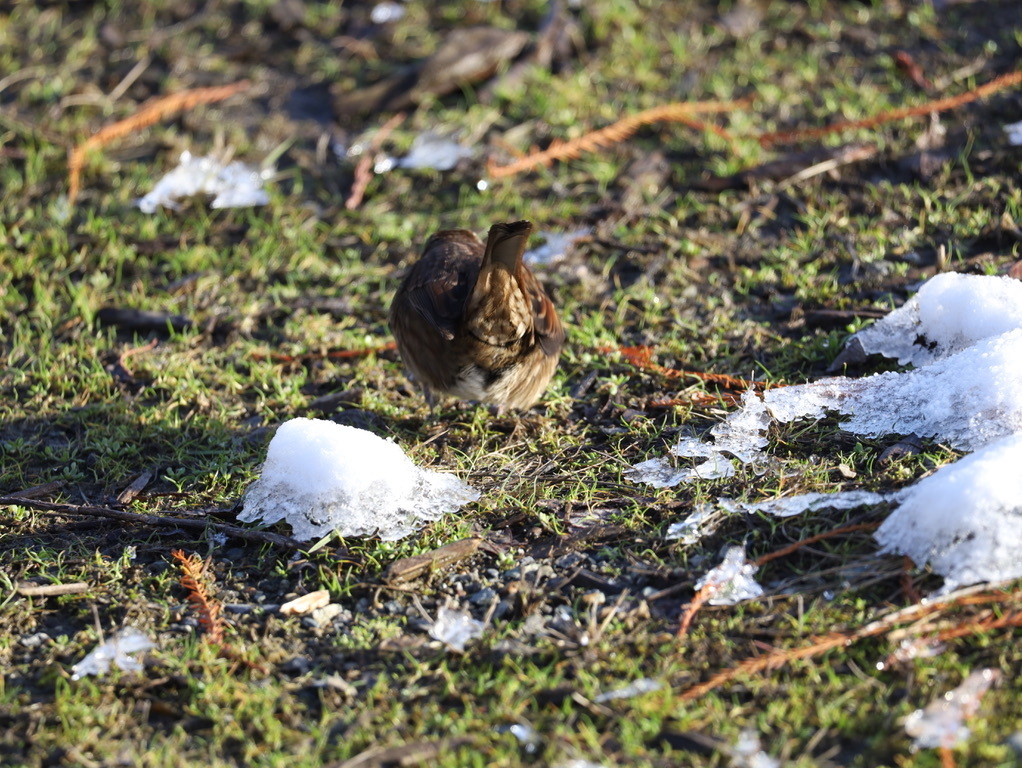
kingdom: Animalia
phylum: Chordata
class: Aves
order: Passeriformes
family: Passerellidae
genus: Melospiza
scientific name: Melospiza melodia
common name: Song sparrow
